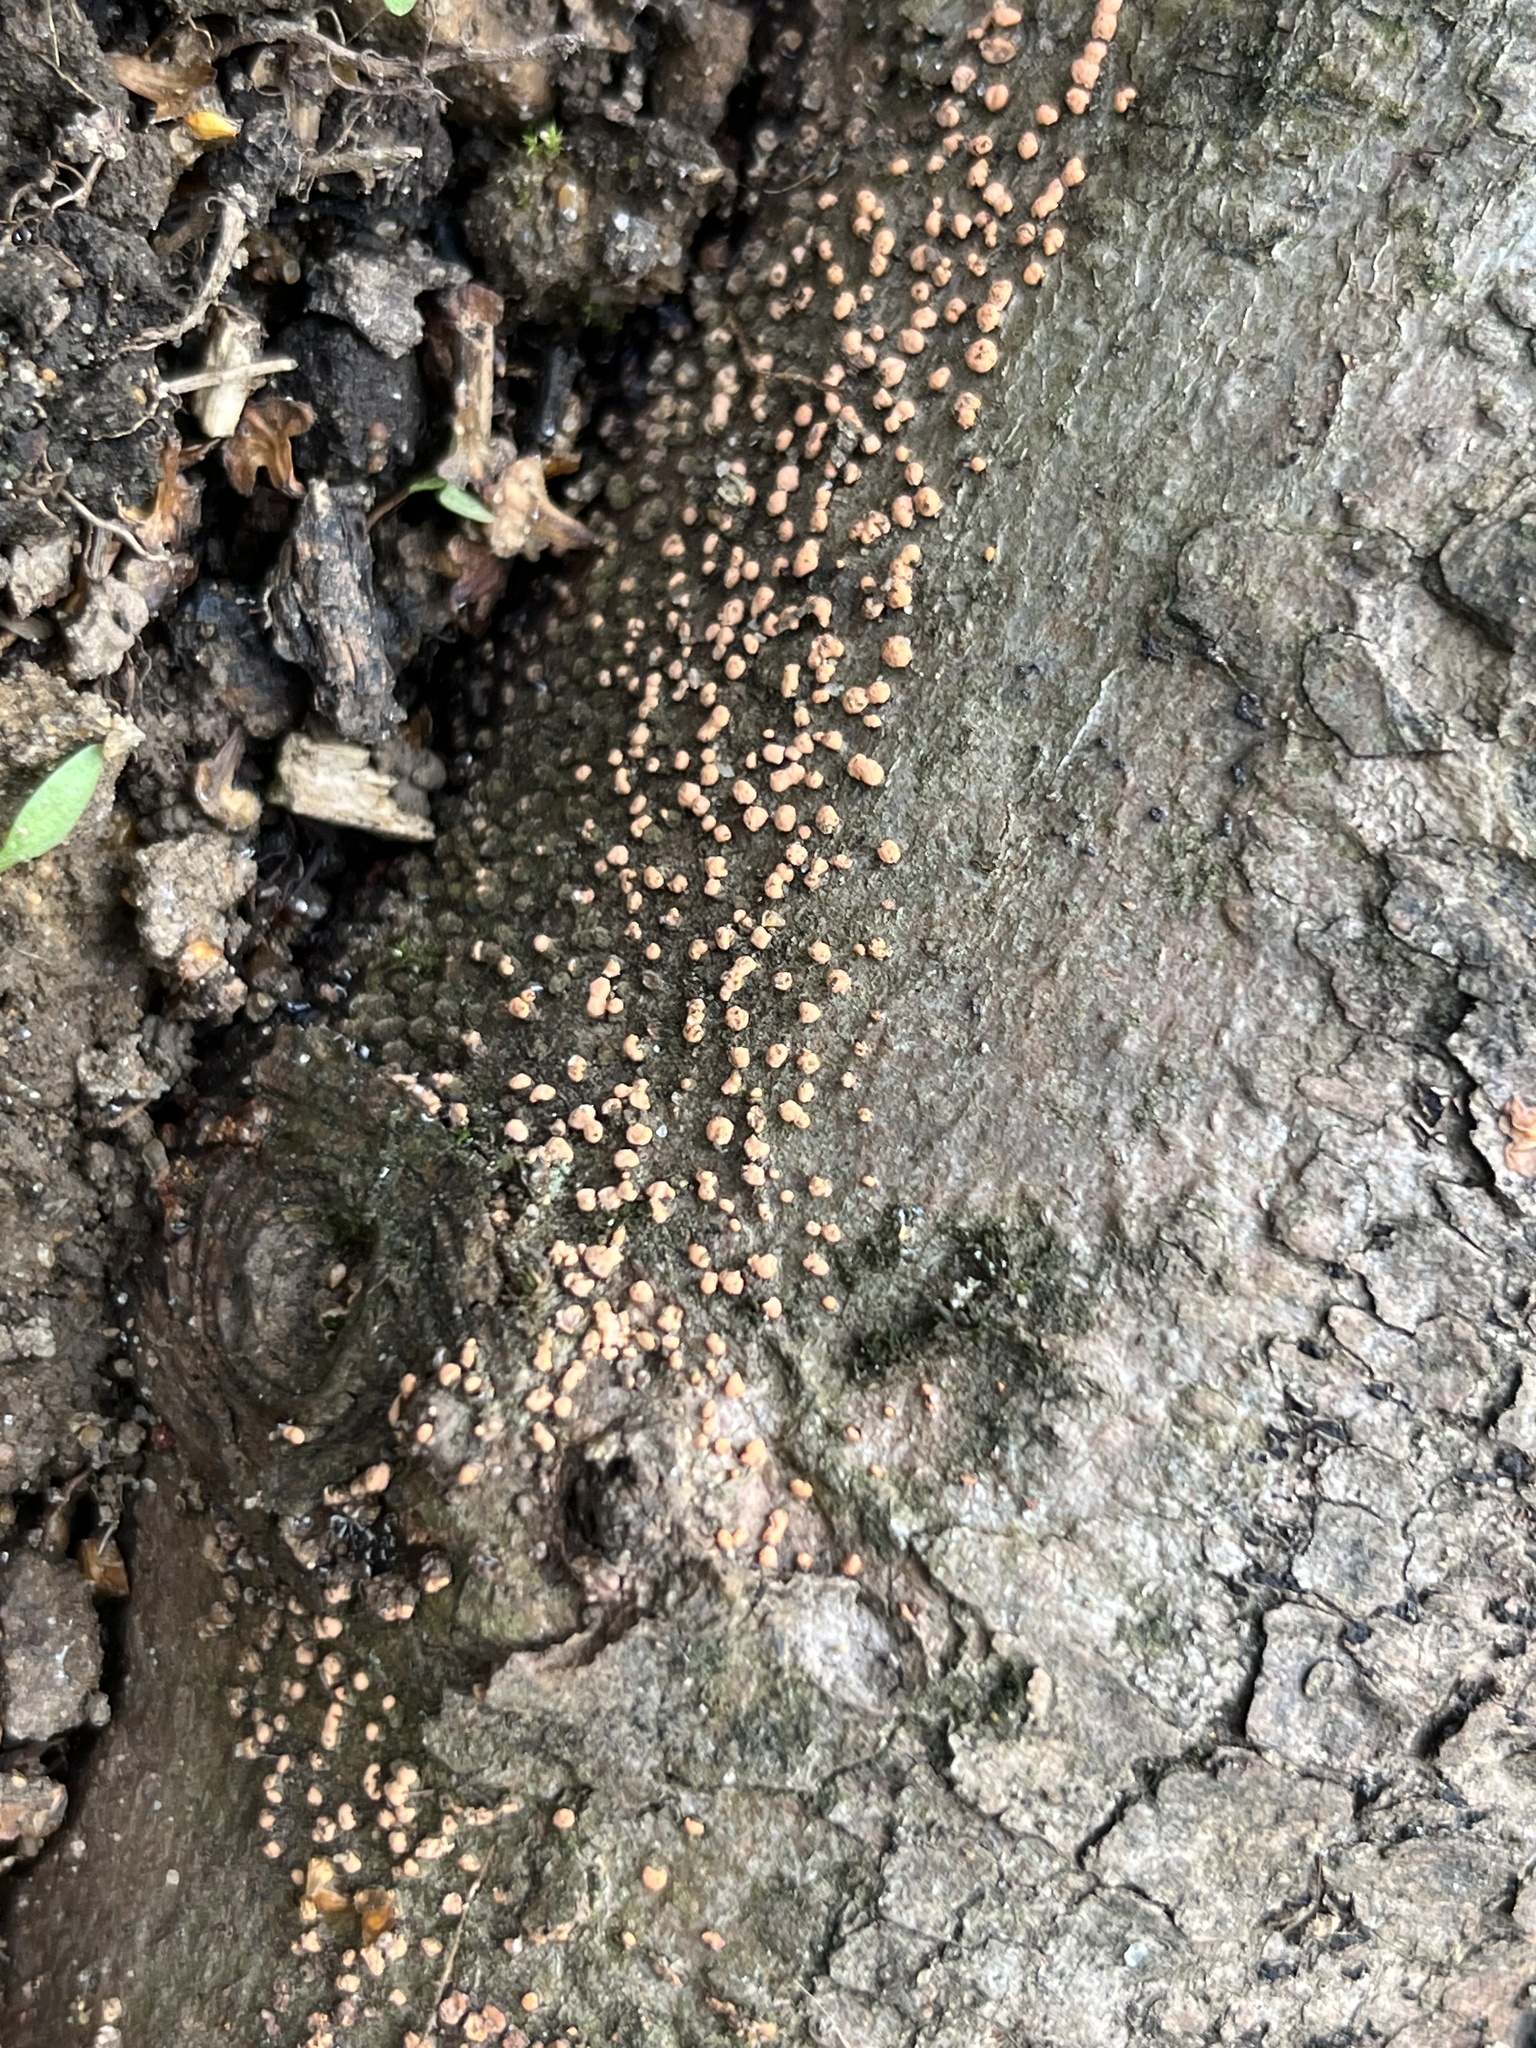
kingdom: Fungi
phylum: Ascomycota
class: Sordariomycetes
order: Hypocreales
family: Nectriaceae
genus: Nectria
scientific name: Nectria cinnabarina
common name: Coral spot
